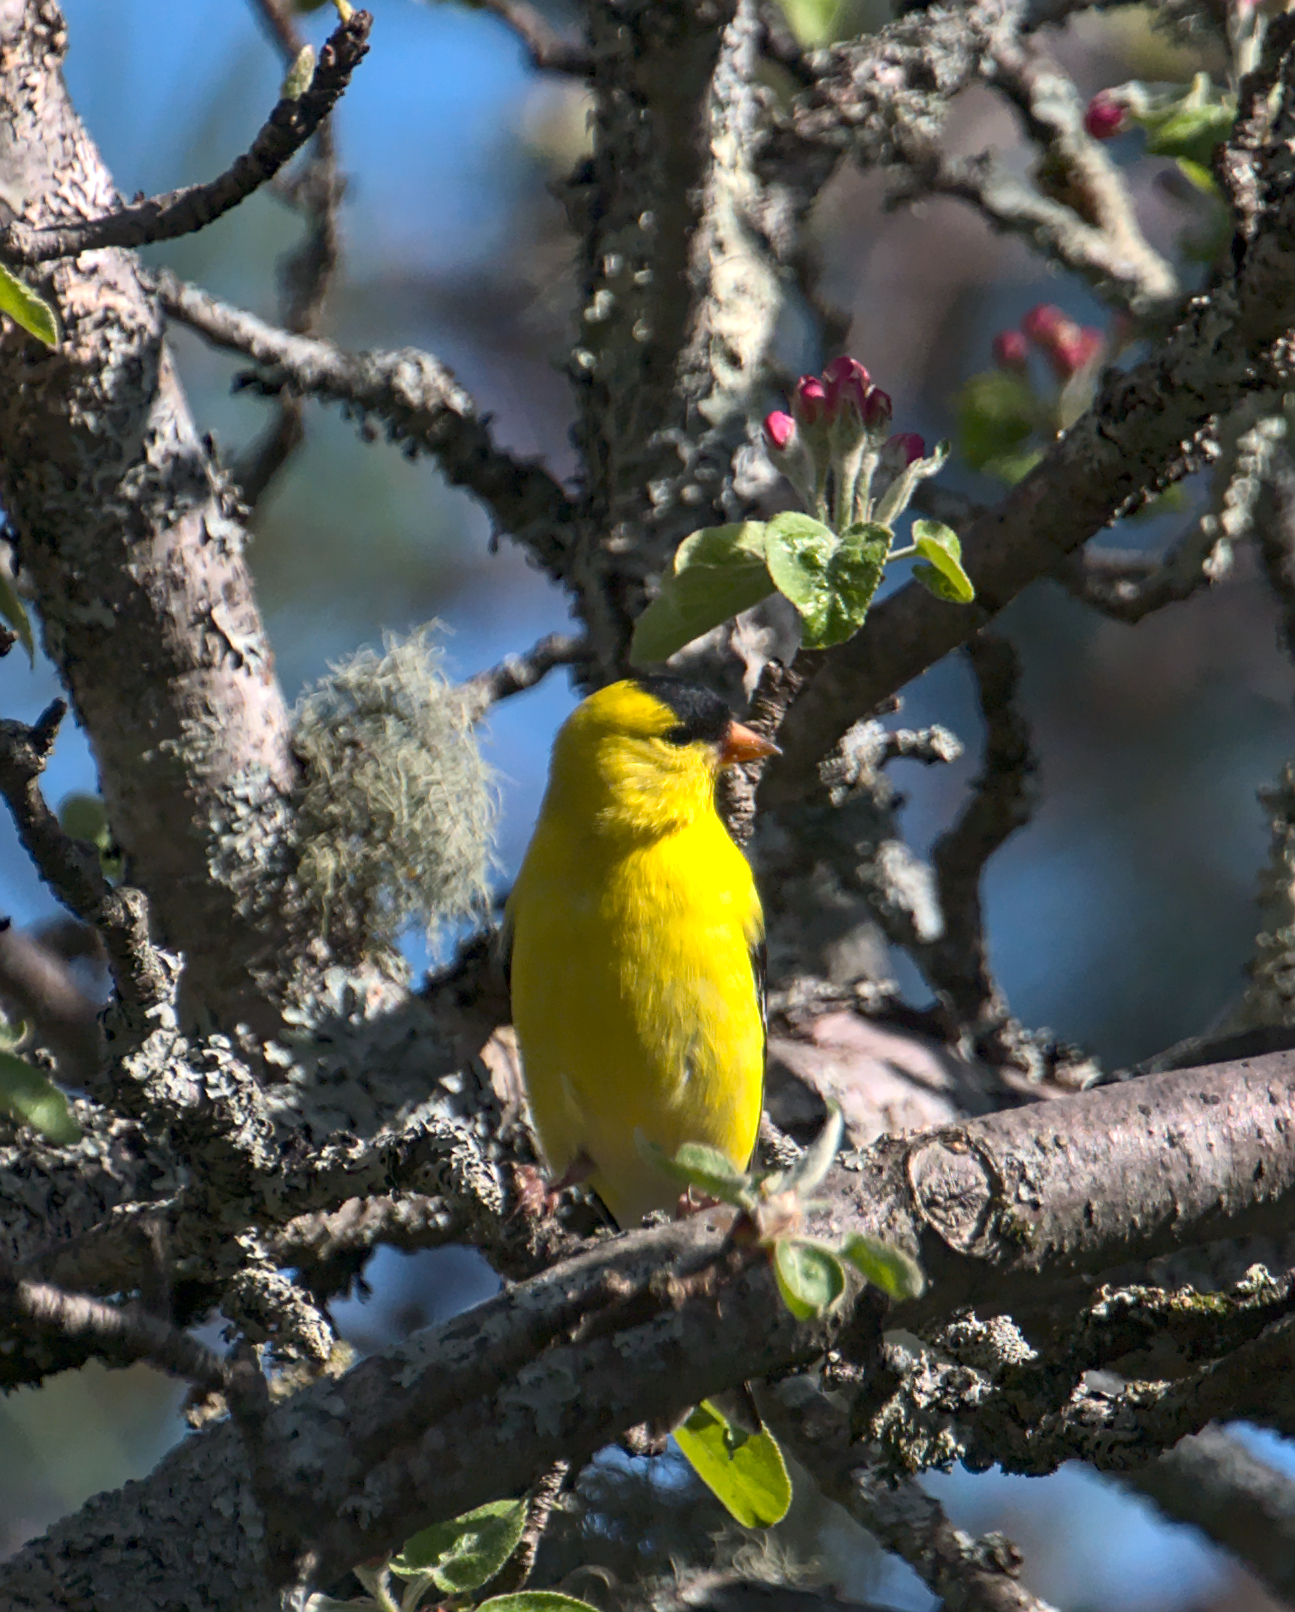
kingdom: Animalia
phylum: Chordata
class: Aves
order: Passeriformes
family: Fringillidae
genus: Spinus
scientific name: Spinus tristis
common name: American goldfinch
